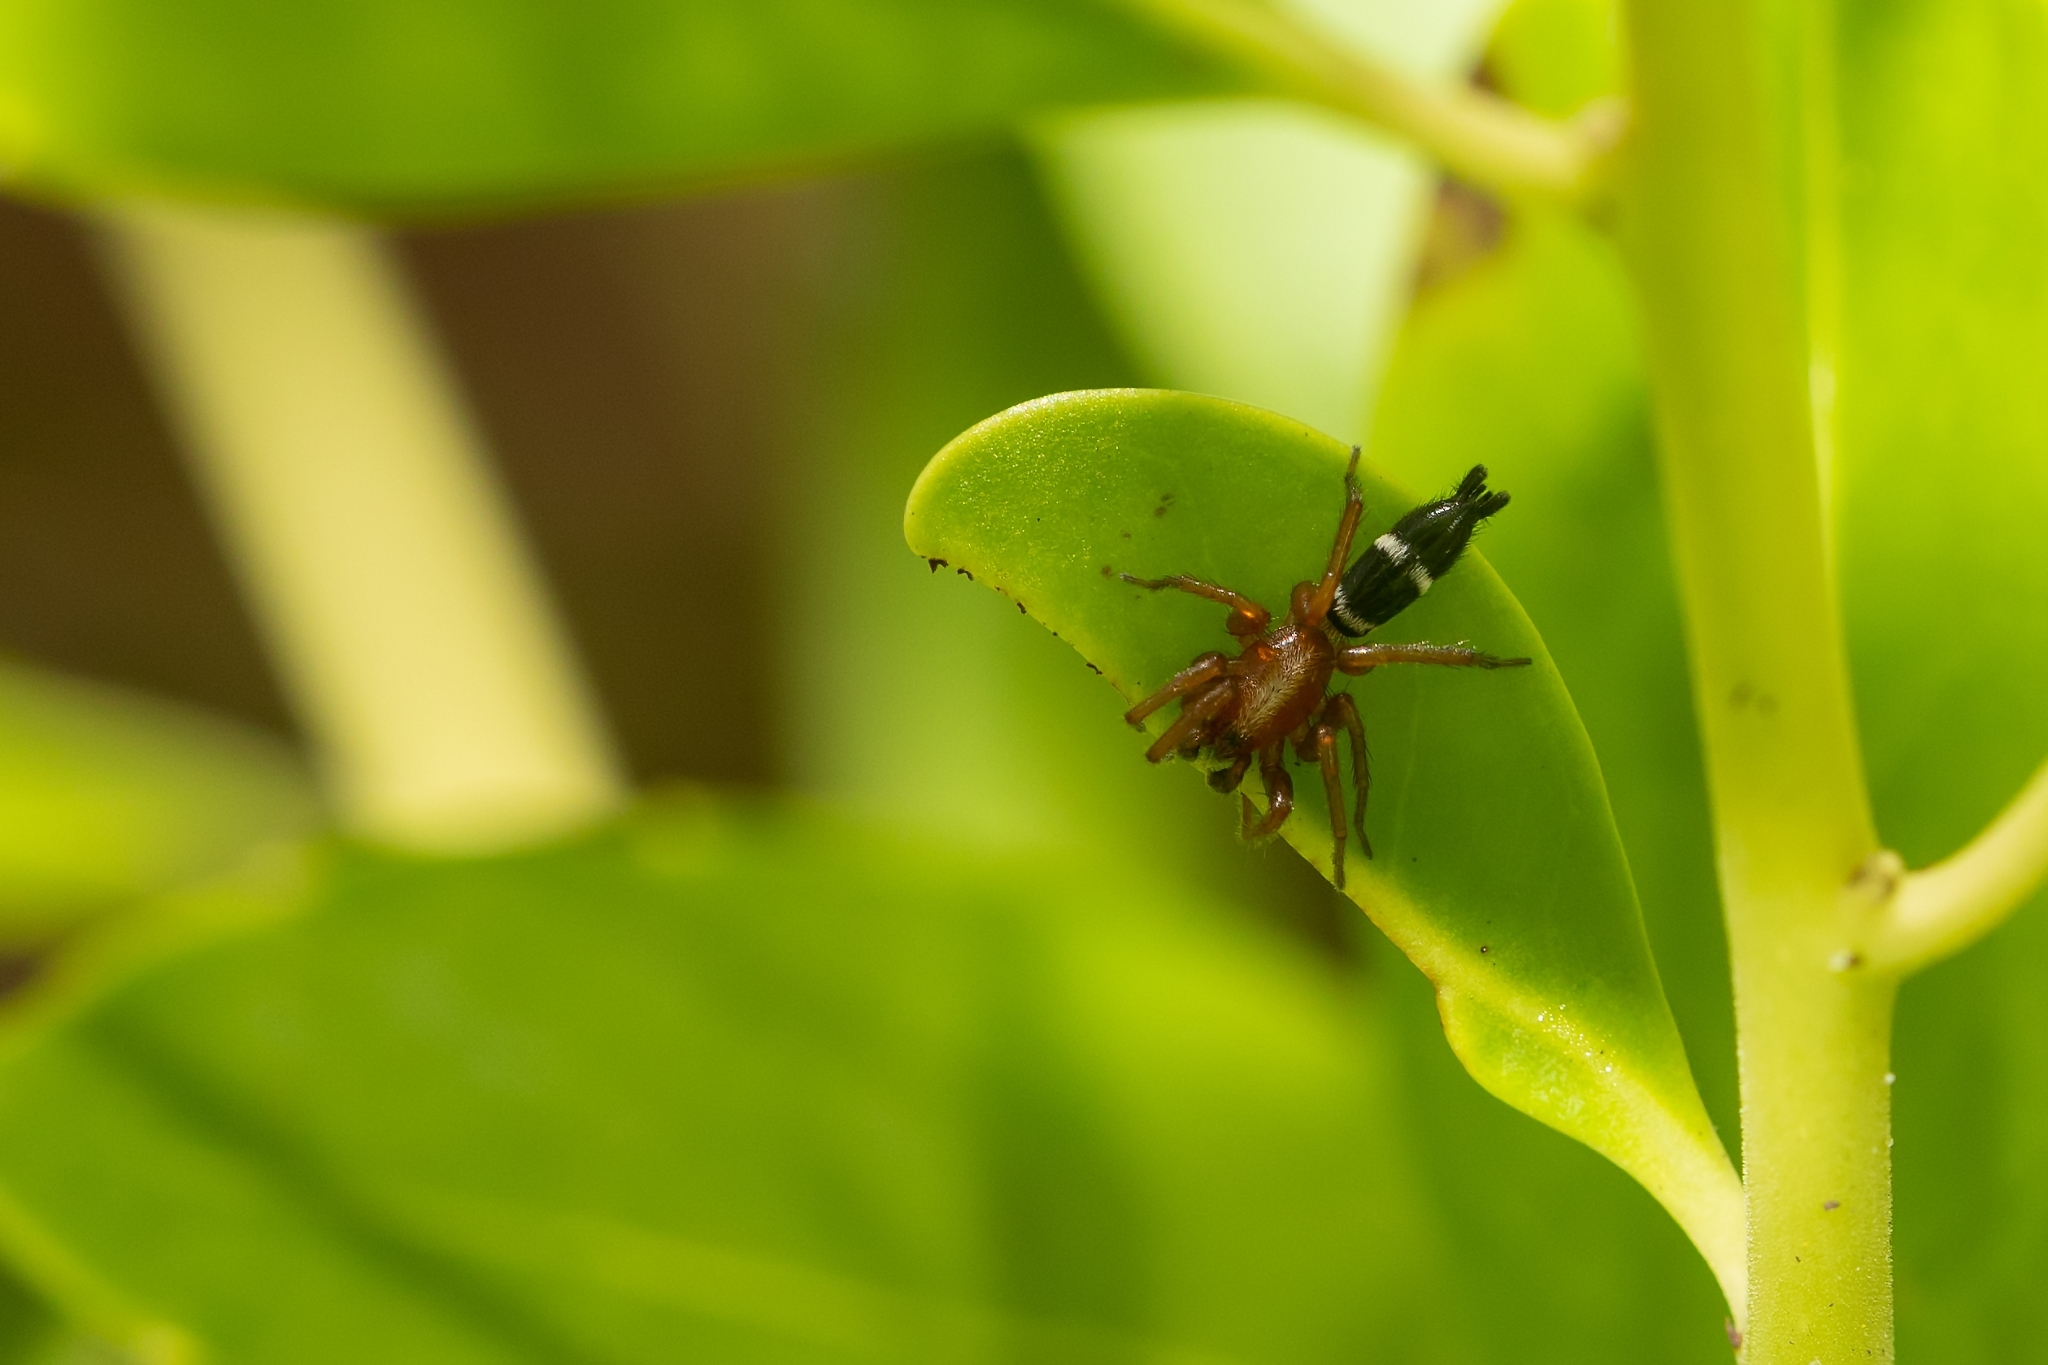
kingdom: Animalia
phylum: Arthropoda
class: Arachnida
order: Araneae
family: Gnaphosidae
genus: Sergiolus
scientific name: Sergiolus bicolor
